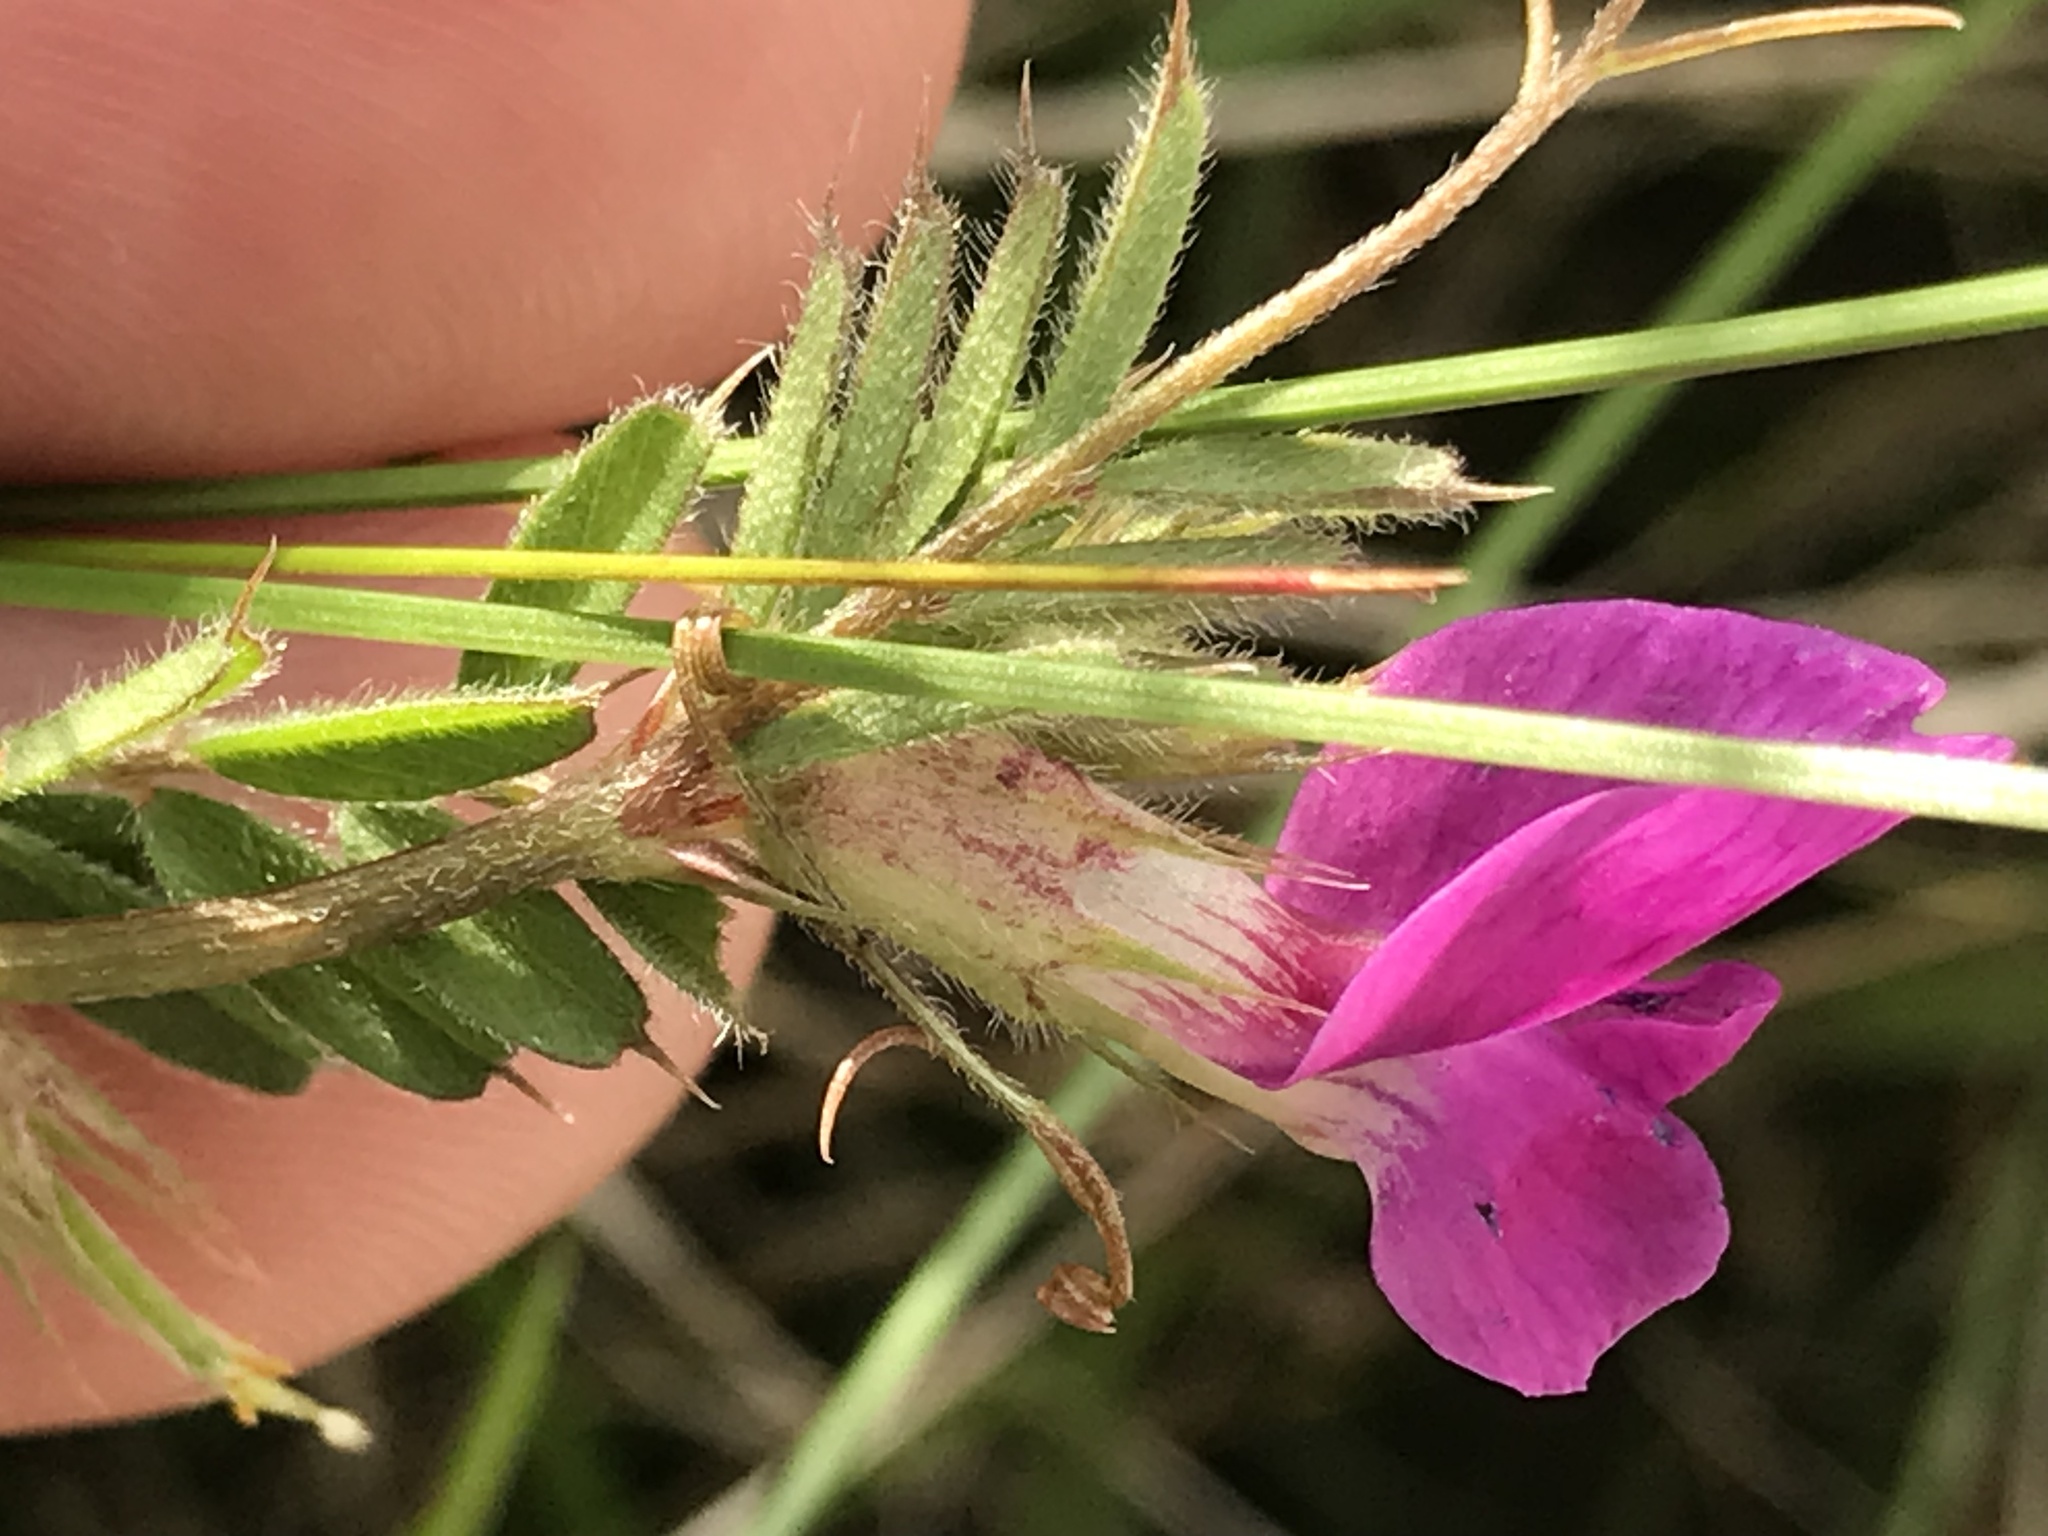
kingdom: Plantae
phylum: Tracheophyta
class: Magnoliopsida
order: Fabales
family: Fabaceae
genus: Vicia
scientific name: Vicia sativa
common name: Garden vetch
